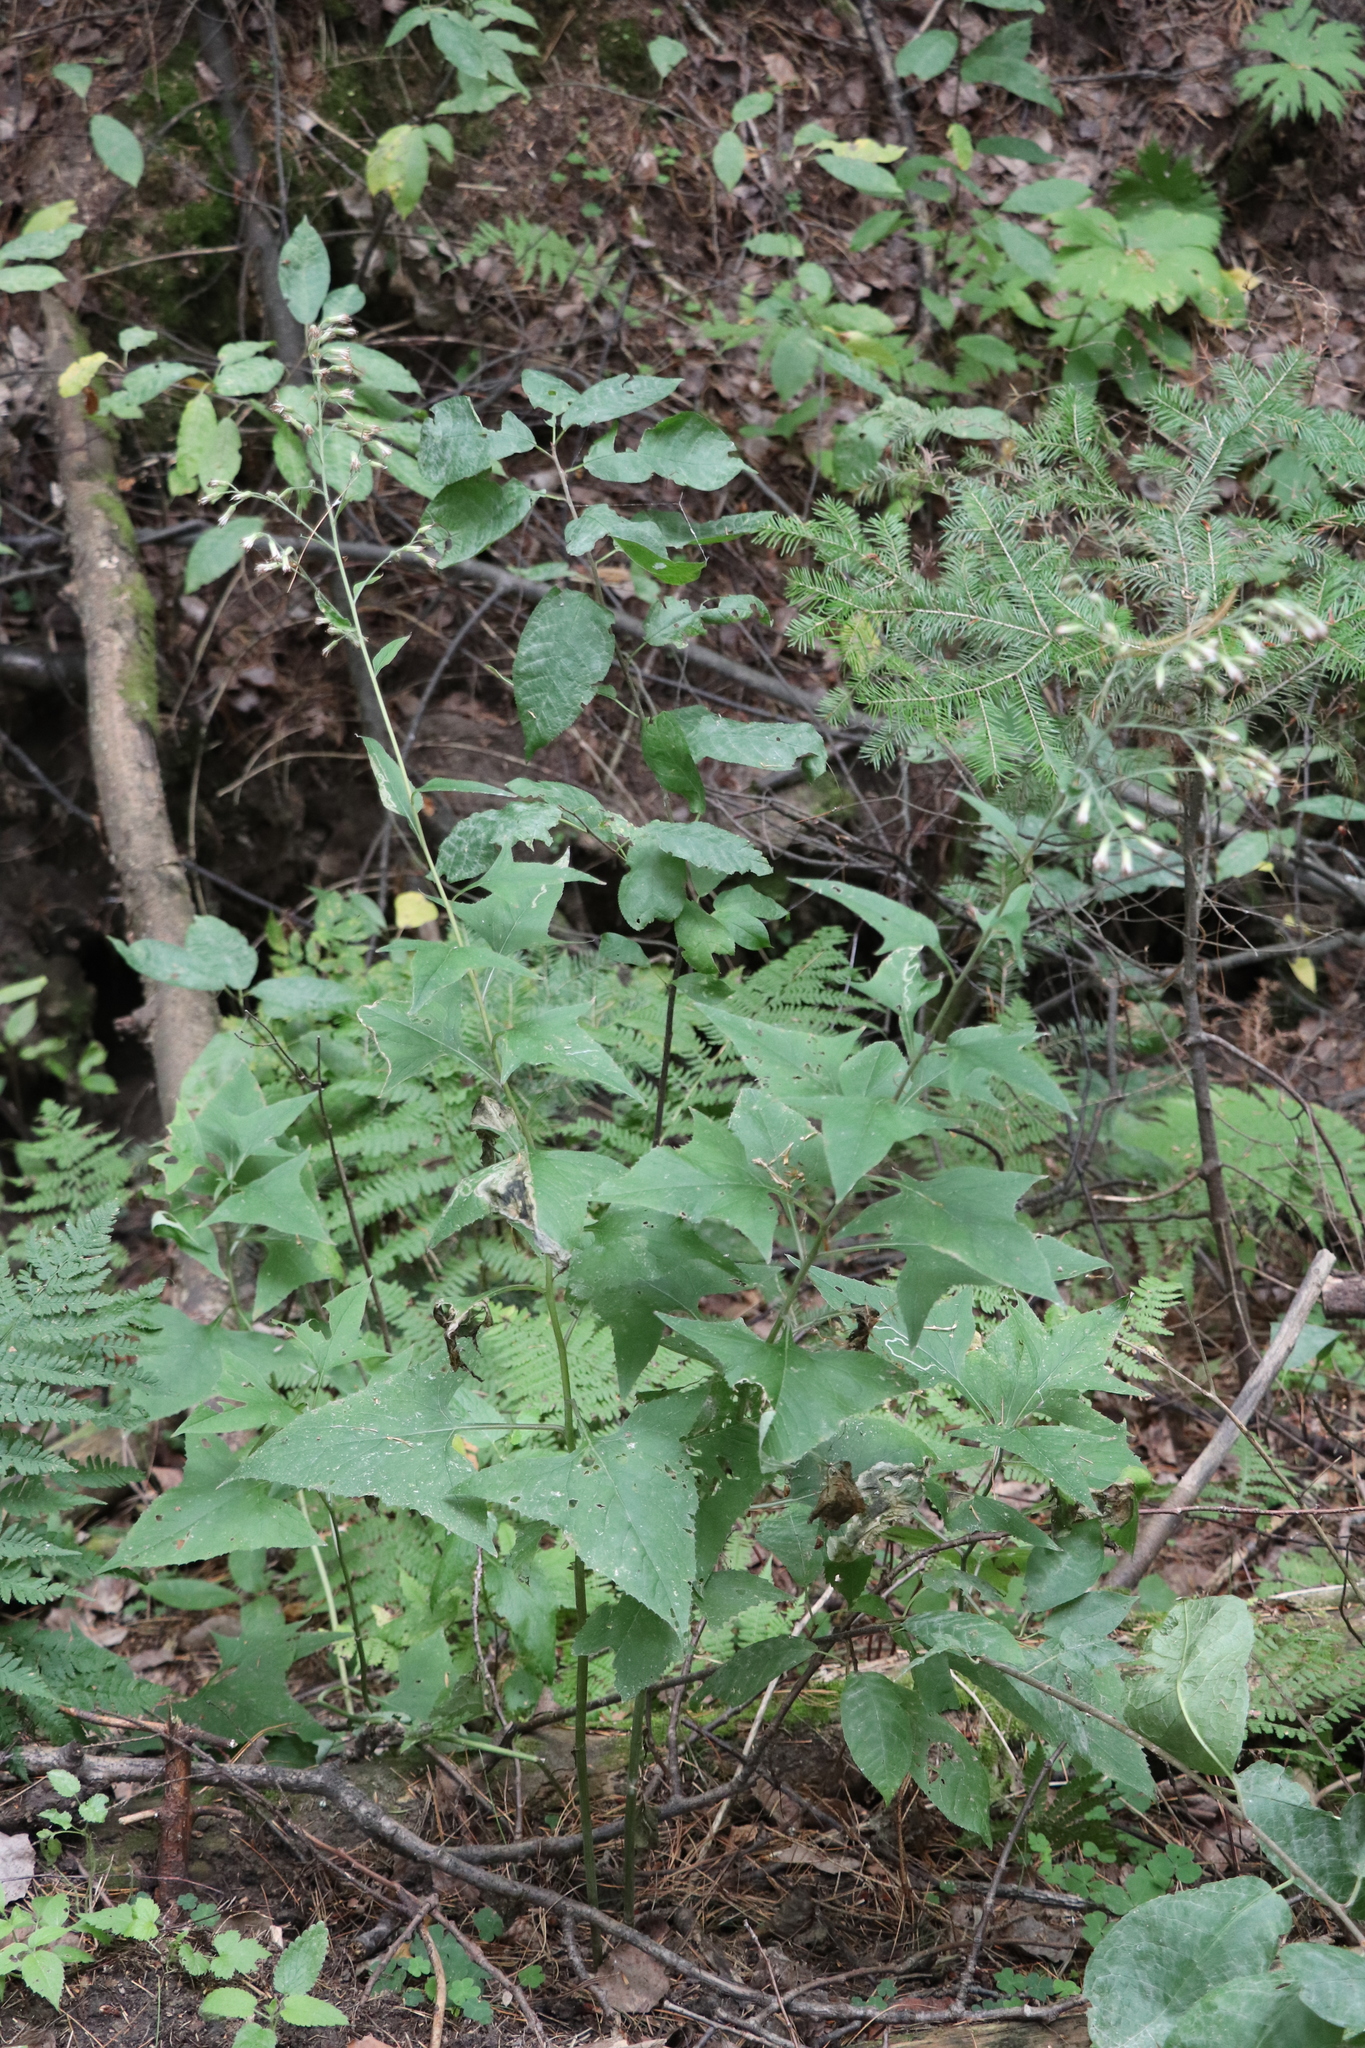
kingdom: Plantae
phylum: Tracheophyta
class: Magnoliopsida
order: Asterales
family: Asteraceae
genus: Parasenecio
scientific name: Parasenecio hastatus
